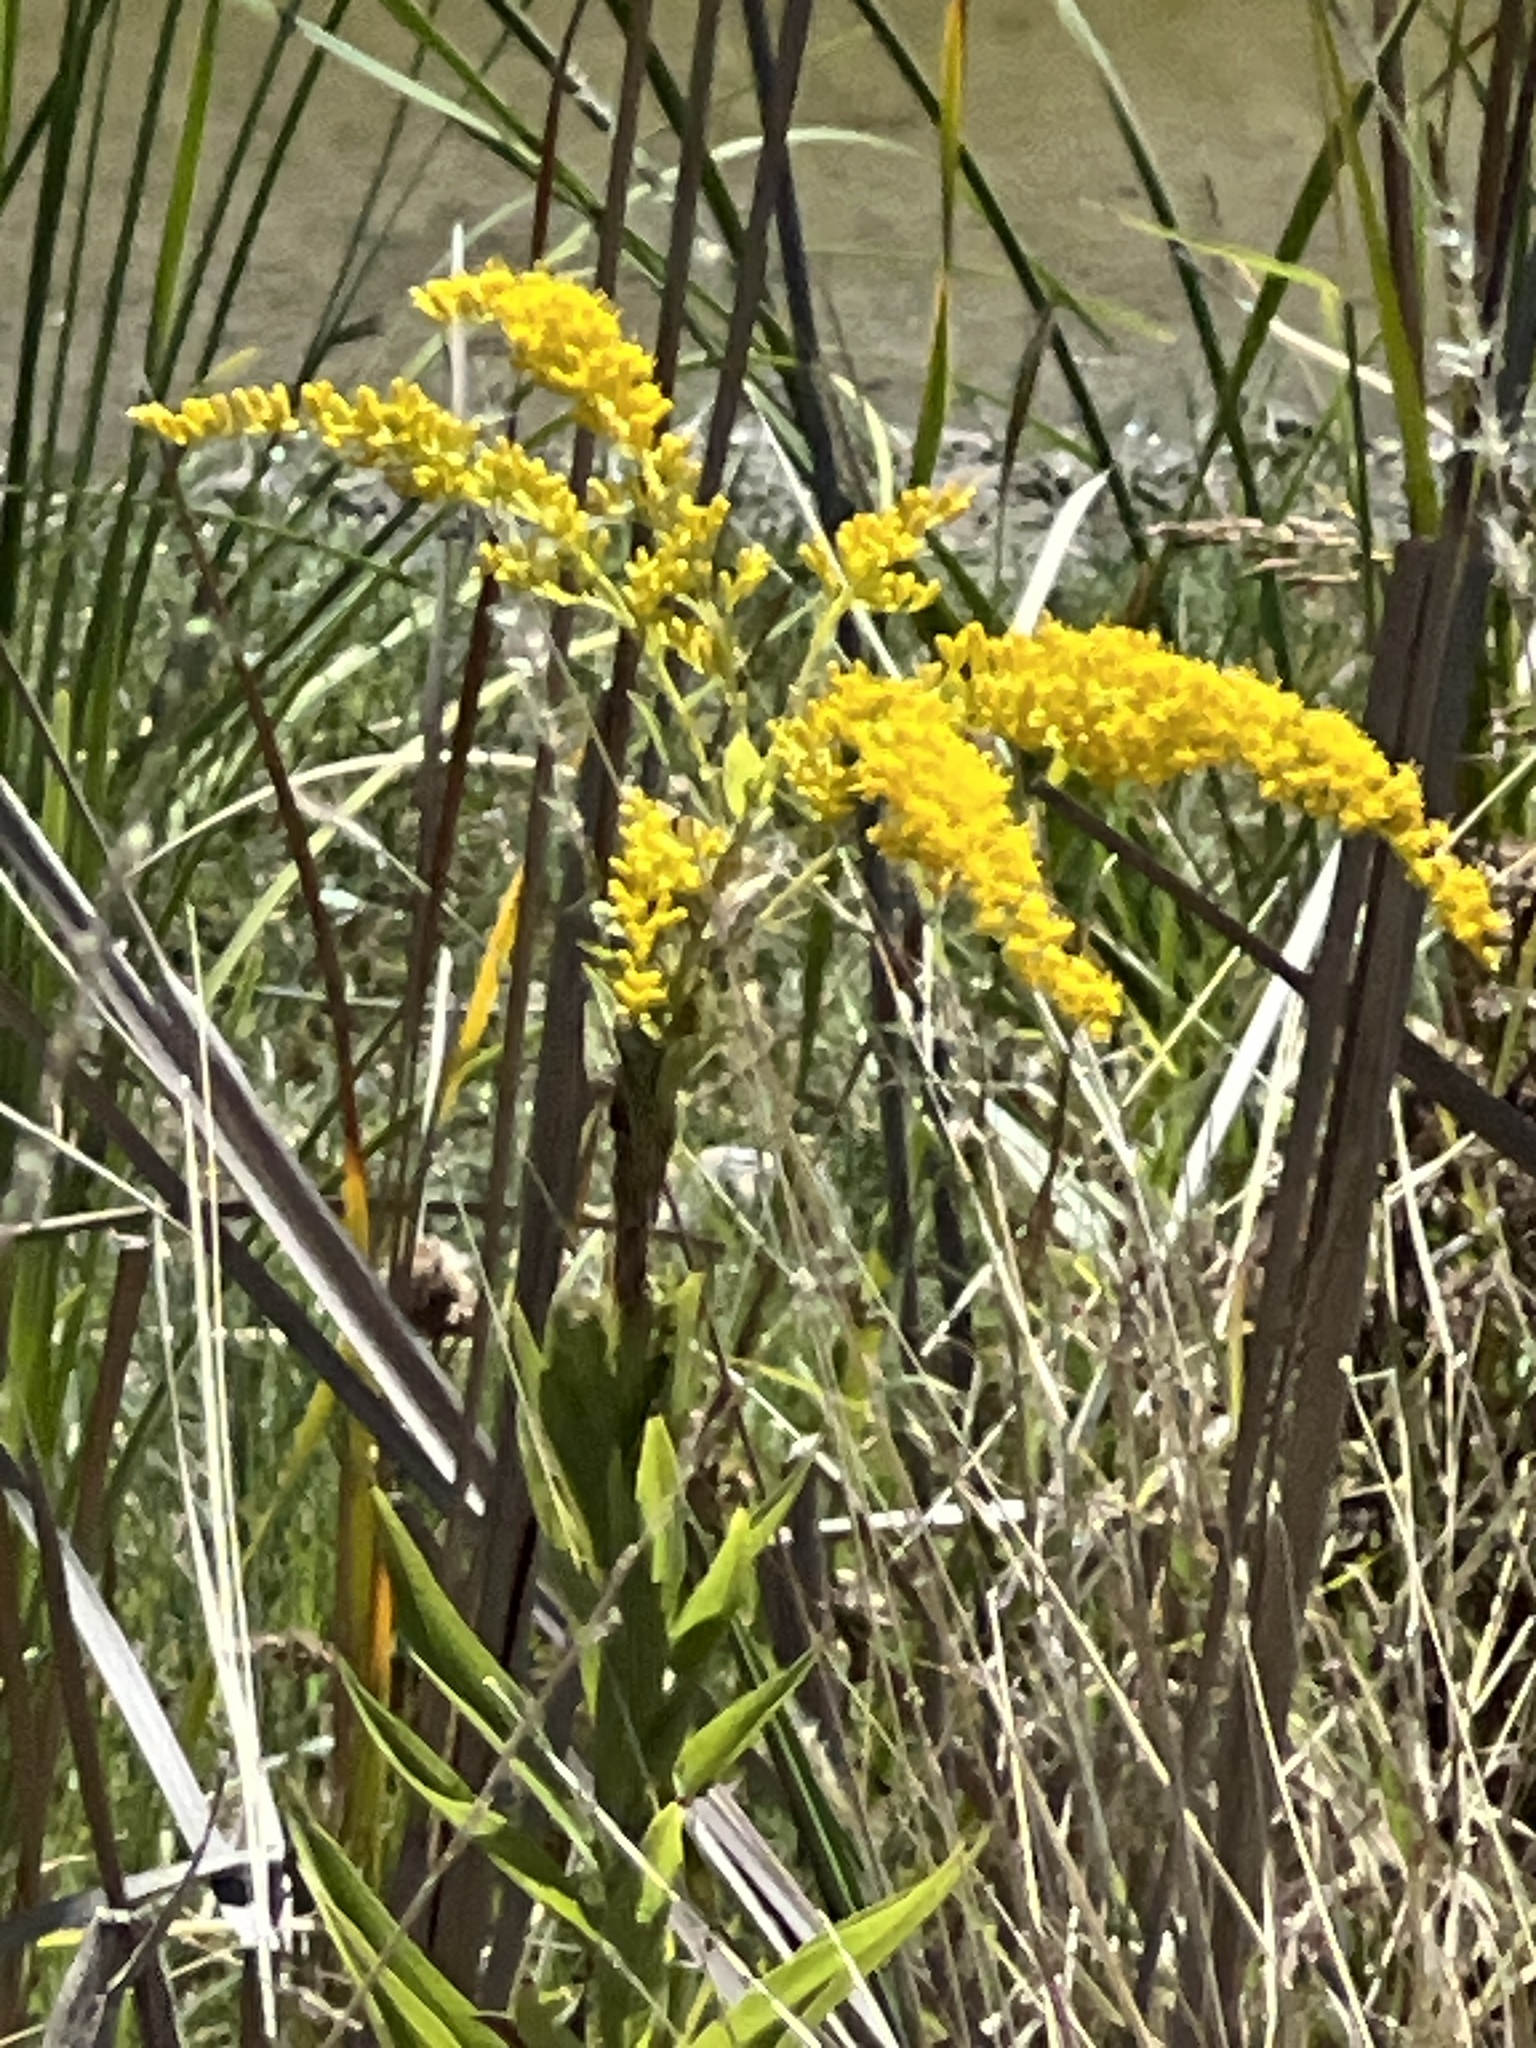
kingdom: Plantae
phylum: Tracheophyta
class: Magnoliopsida
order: Asterales
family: Asteraceae
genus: Solidago
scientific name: Solidago altissima
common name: Late goldenrod
